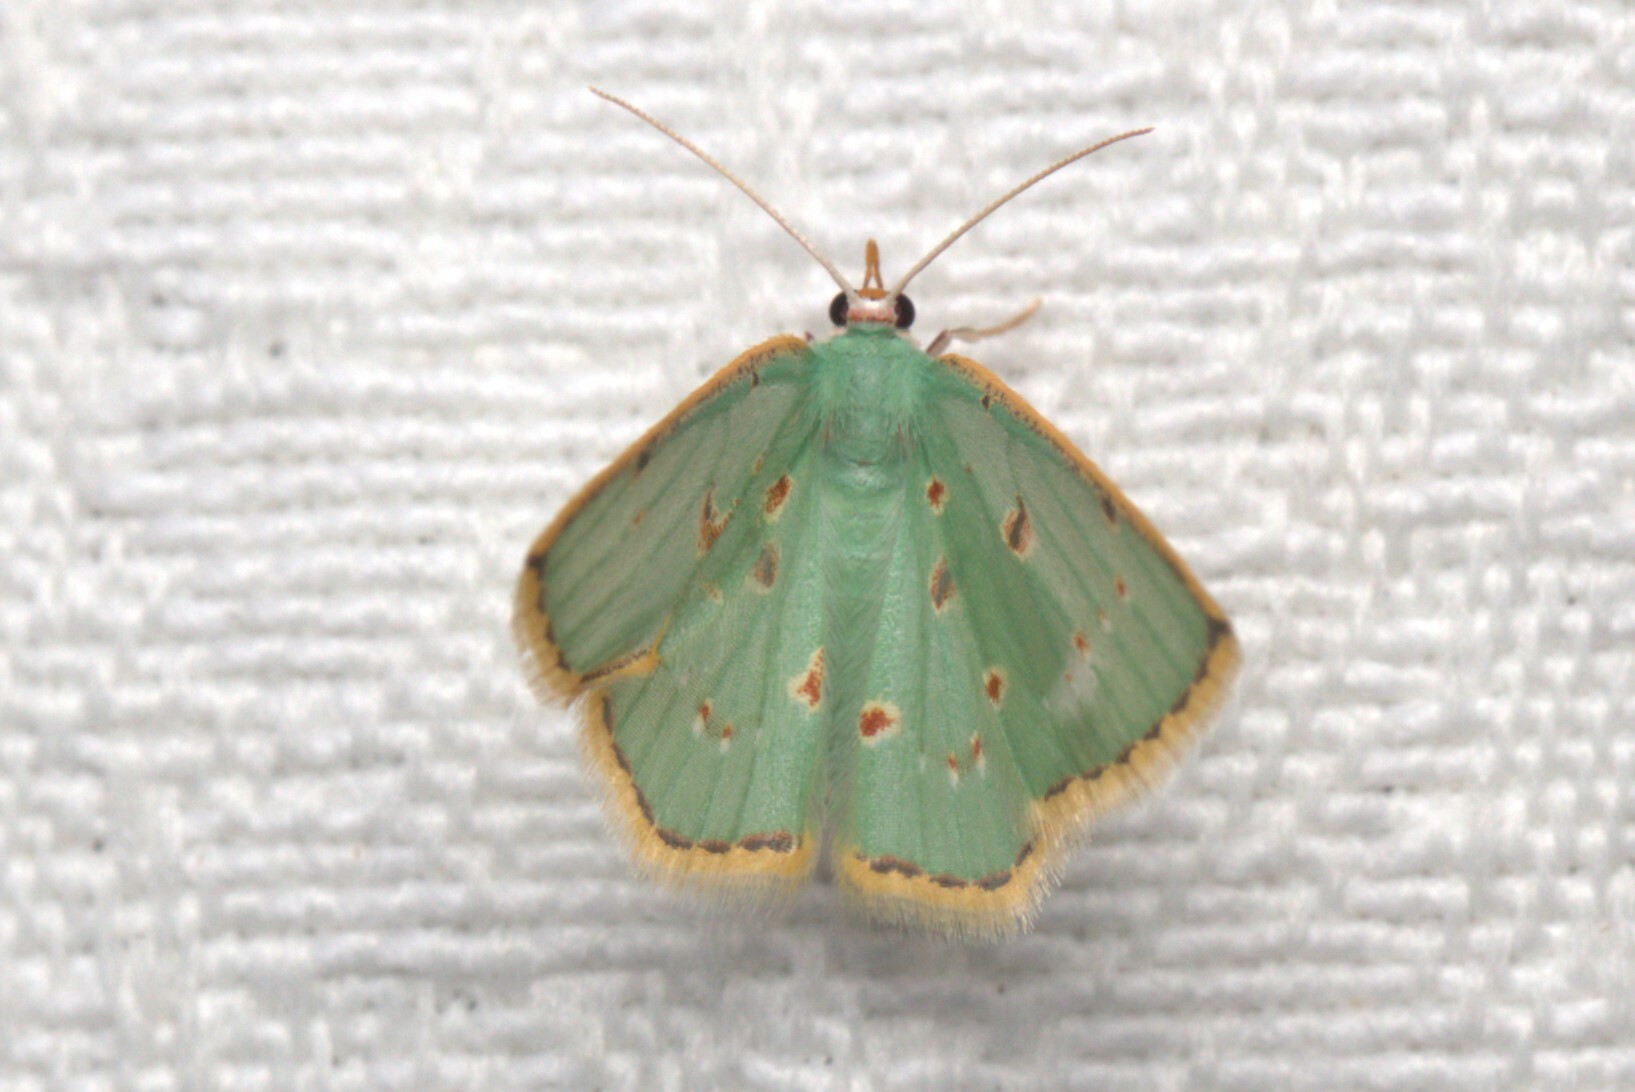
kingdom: Animalia
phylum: Arthropoda
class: Insecta
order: Lepidoptera
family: Geometridae
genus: Comostola
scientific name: Comostola laesaria
